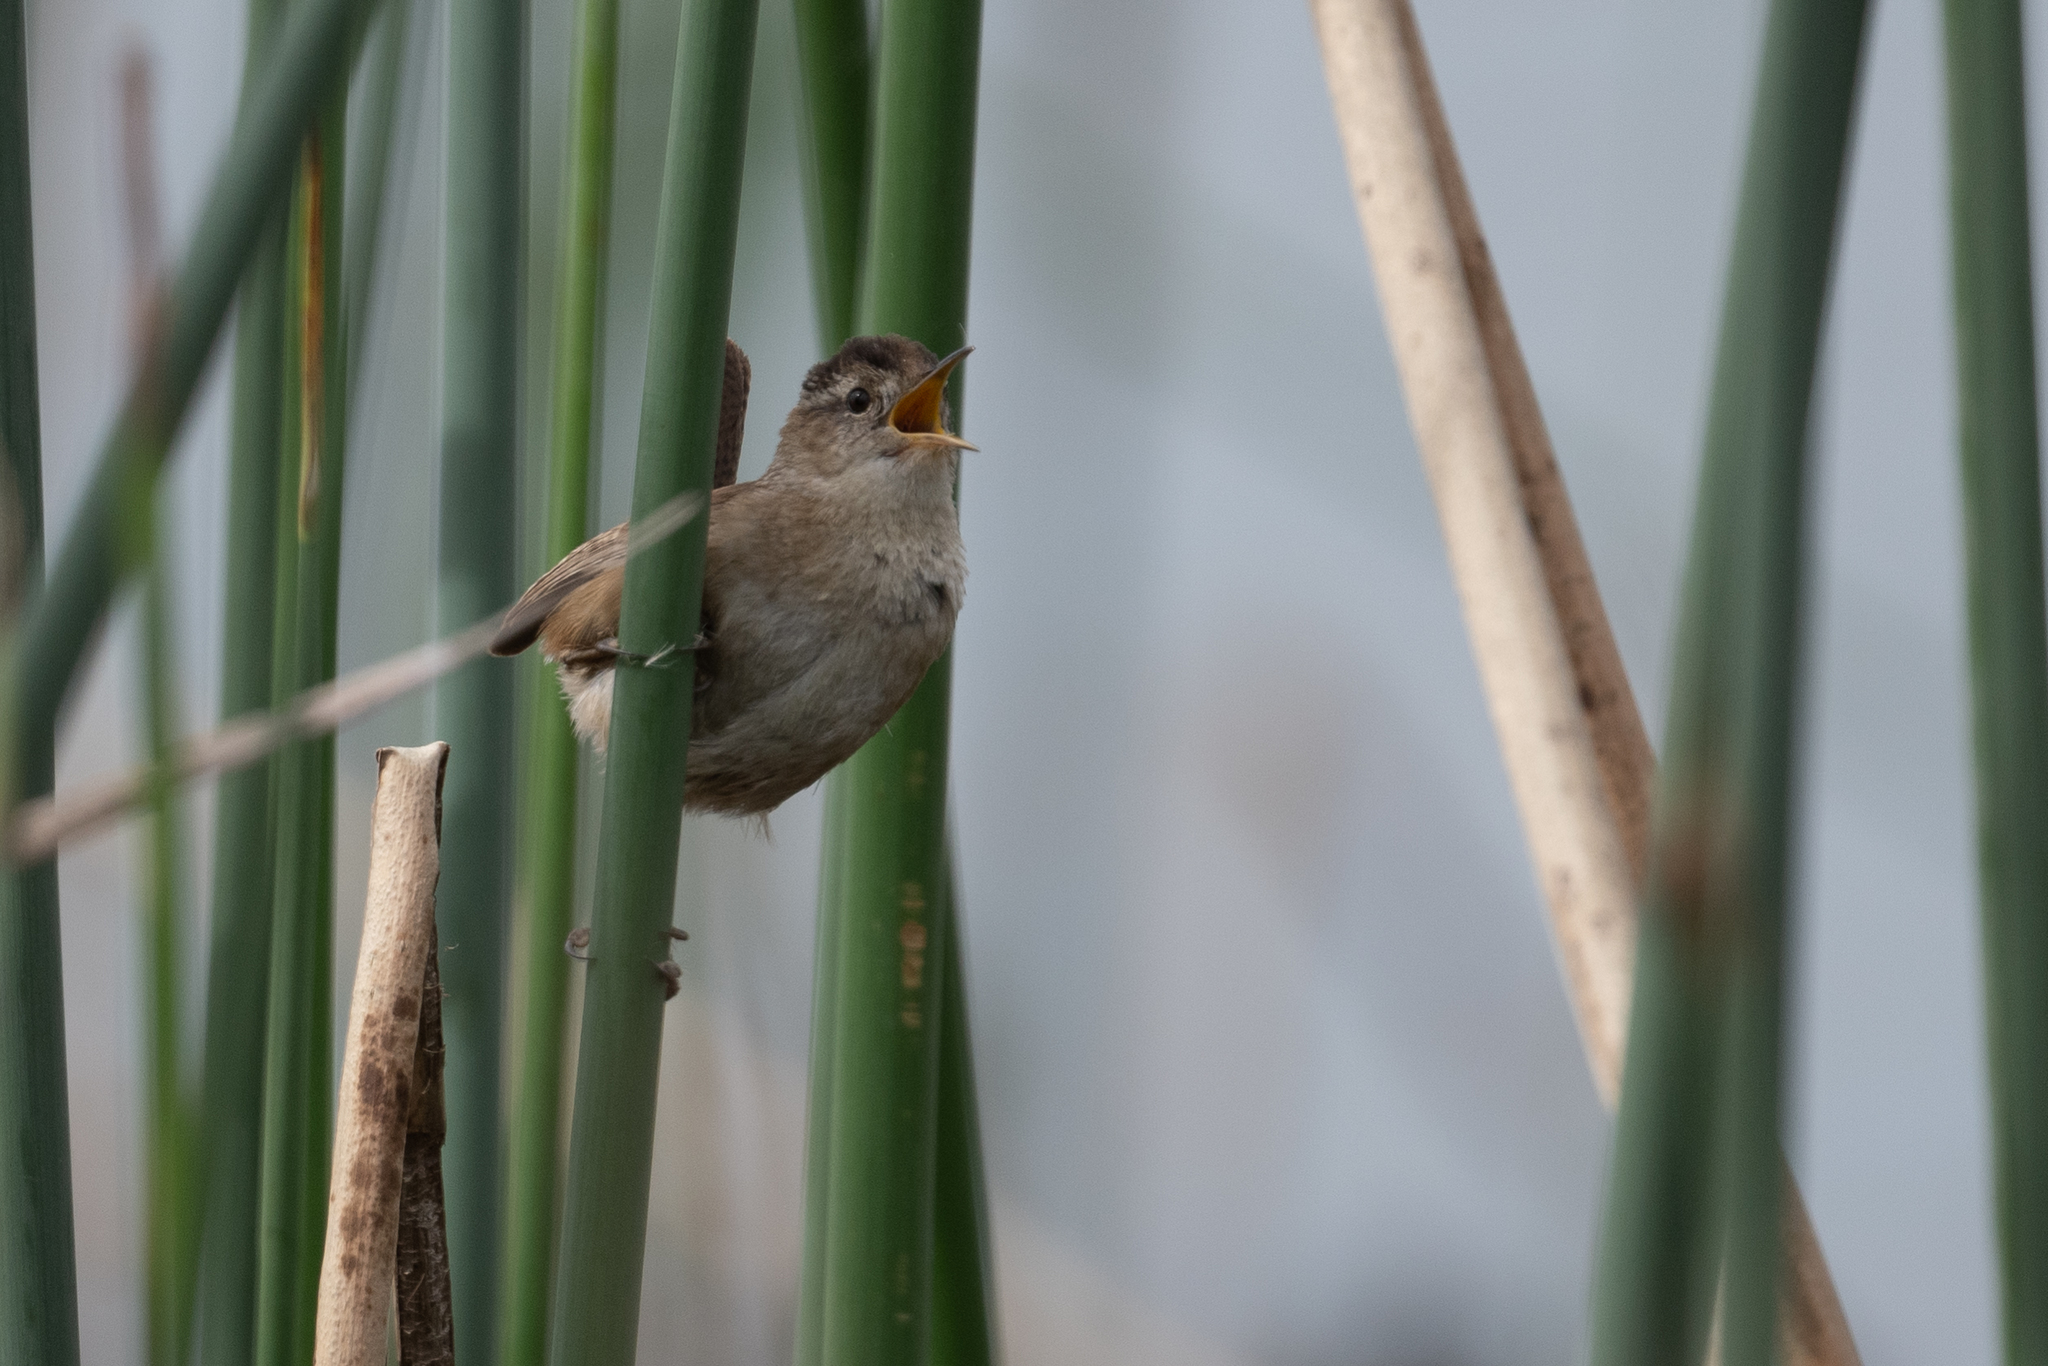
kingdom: Animalia
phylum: Chordata
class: Aves
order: Passeriformes
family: Troglodytidae
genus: Cistothorus
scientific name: Cistothorus palustris
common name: Marsh wren
